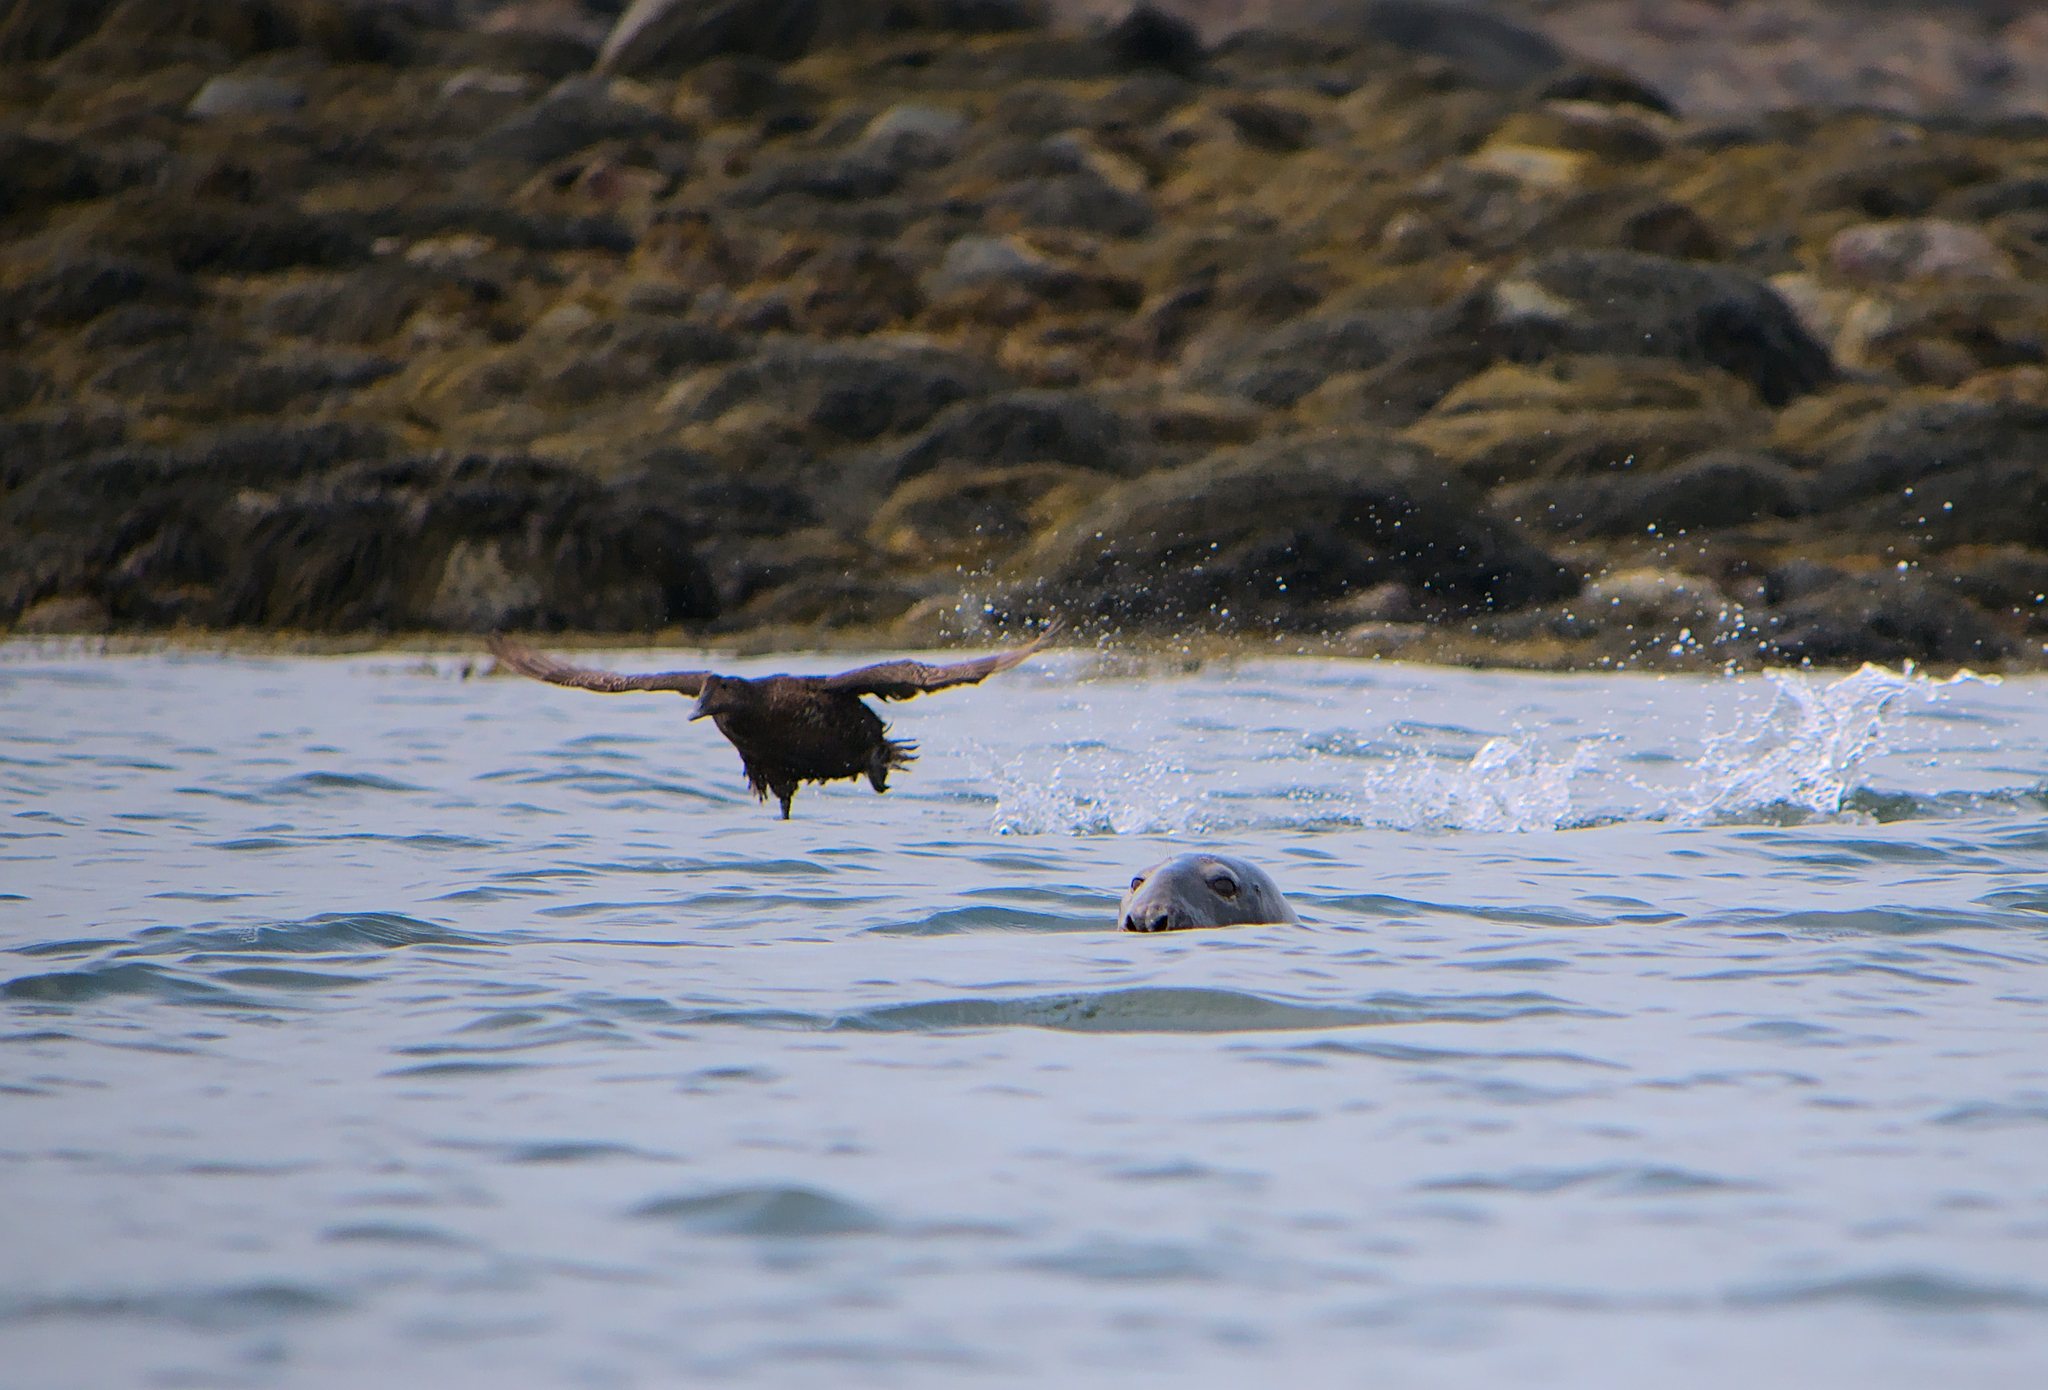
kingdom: Animalia
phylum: Chordata
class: Aves
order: Anseriformes
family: Anatidae
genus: Somateria
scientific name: Somateria mollissima
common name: Common eider
